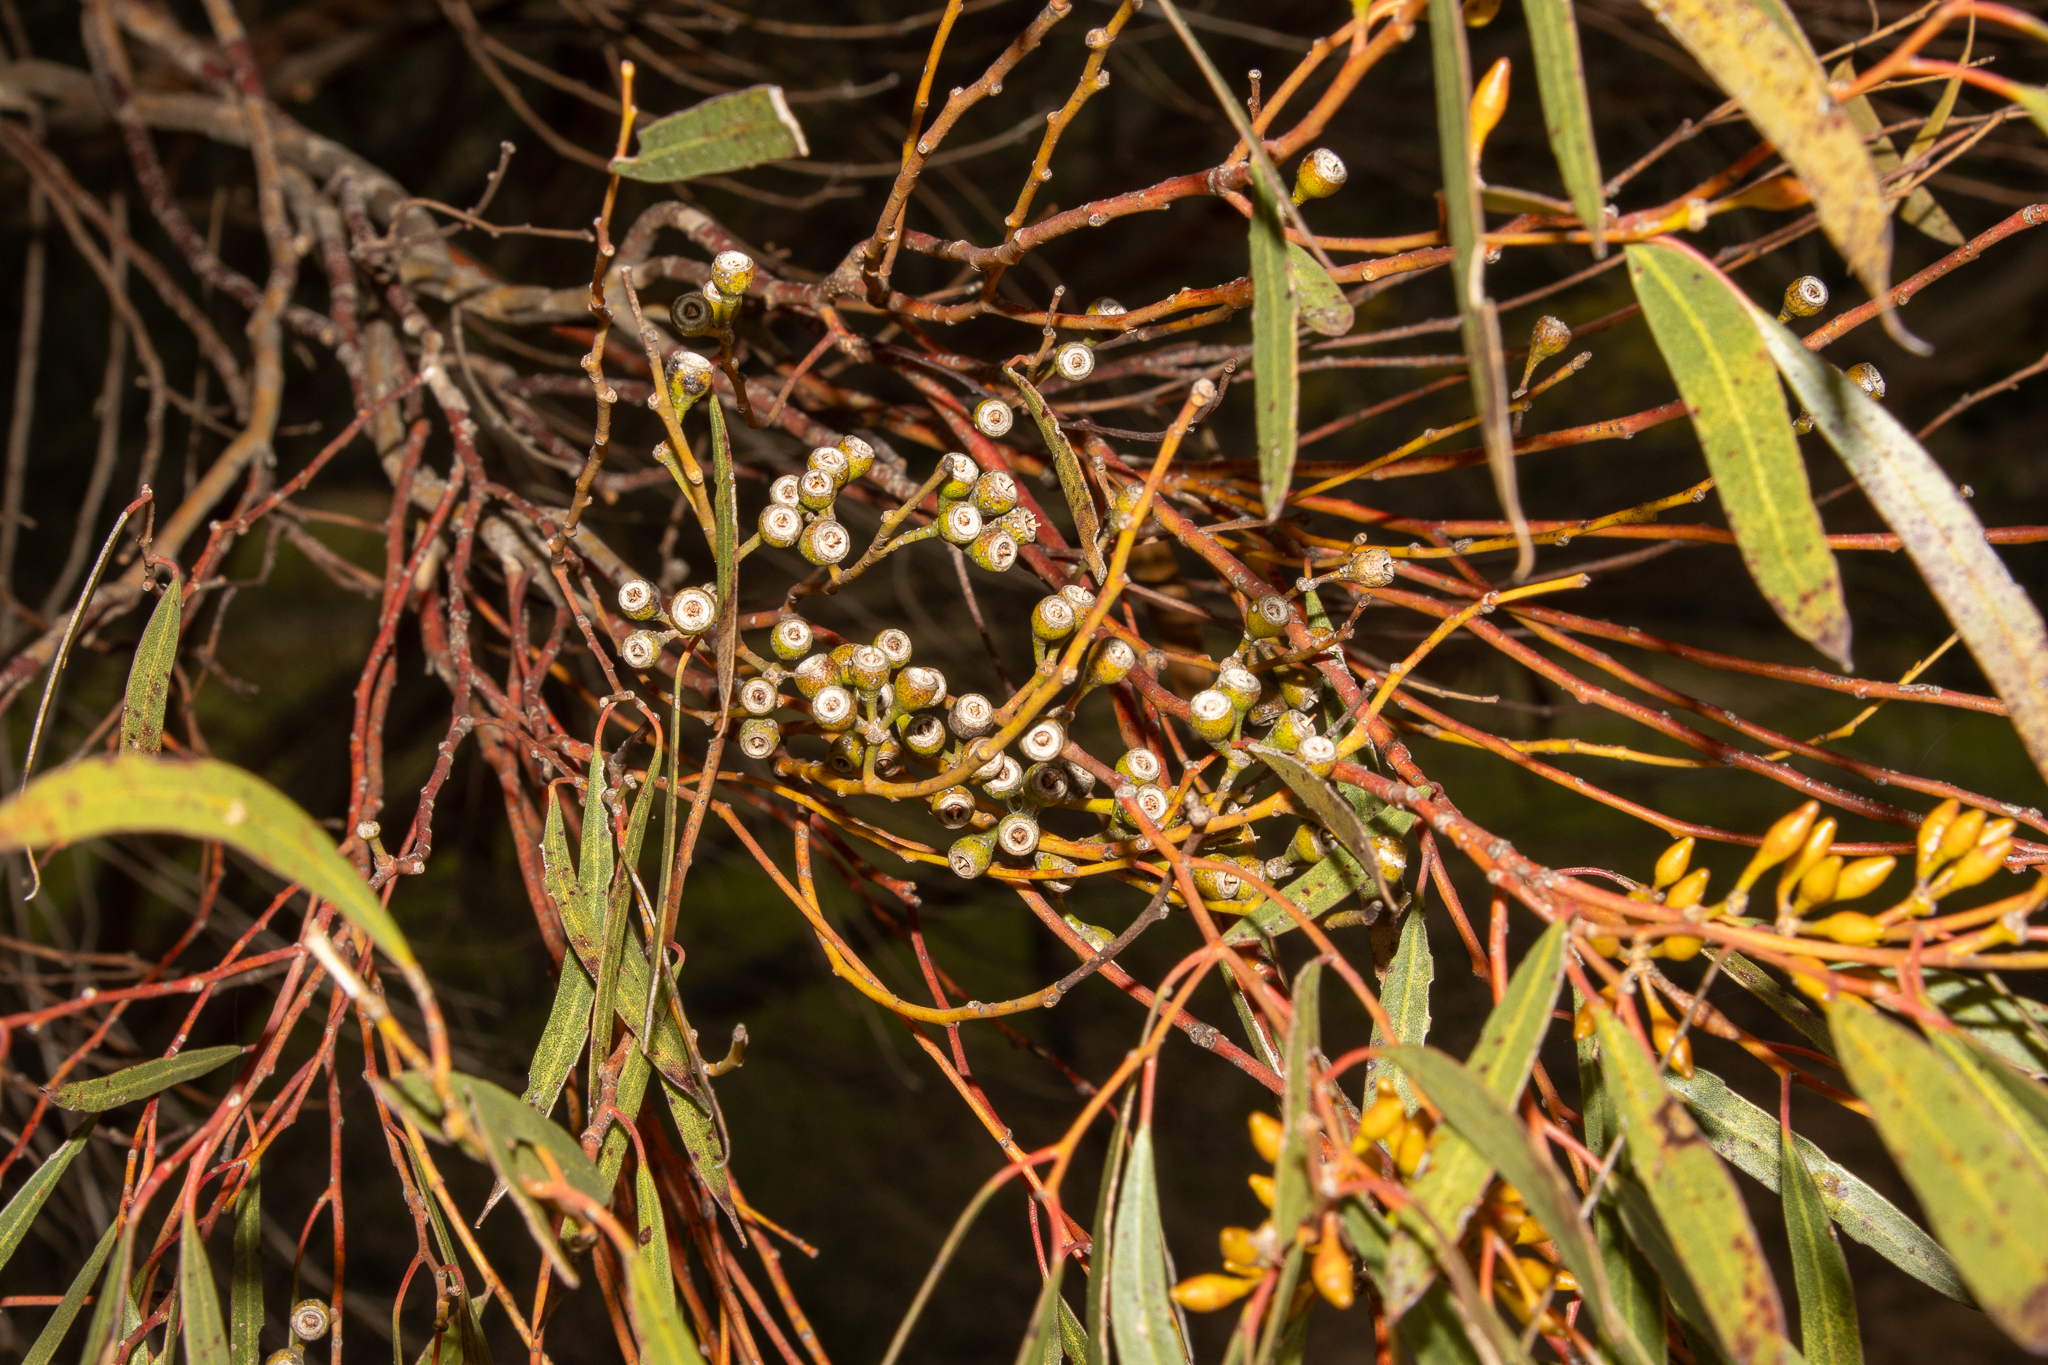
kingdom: Plantae
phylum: Tracheophyta
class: Magnoliopsida
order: Myrtales
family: Myrtaceae
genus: Eucalyptus
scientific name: Eucalyptus foecunda
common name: Freemantle mallee
